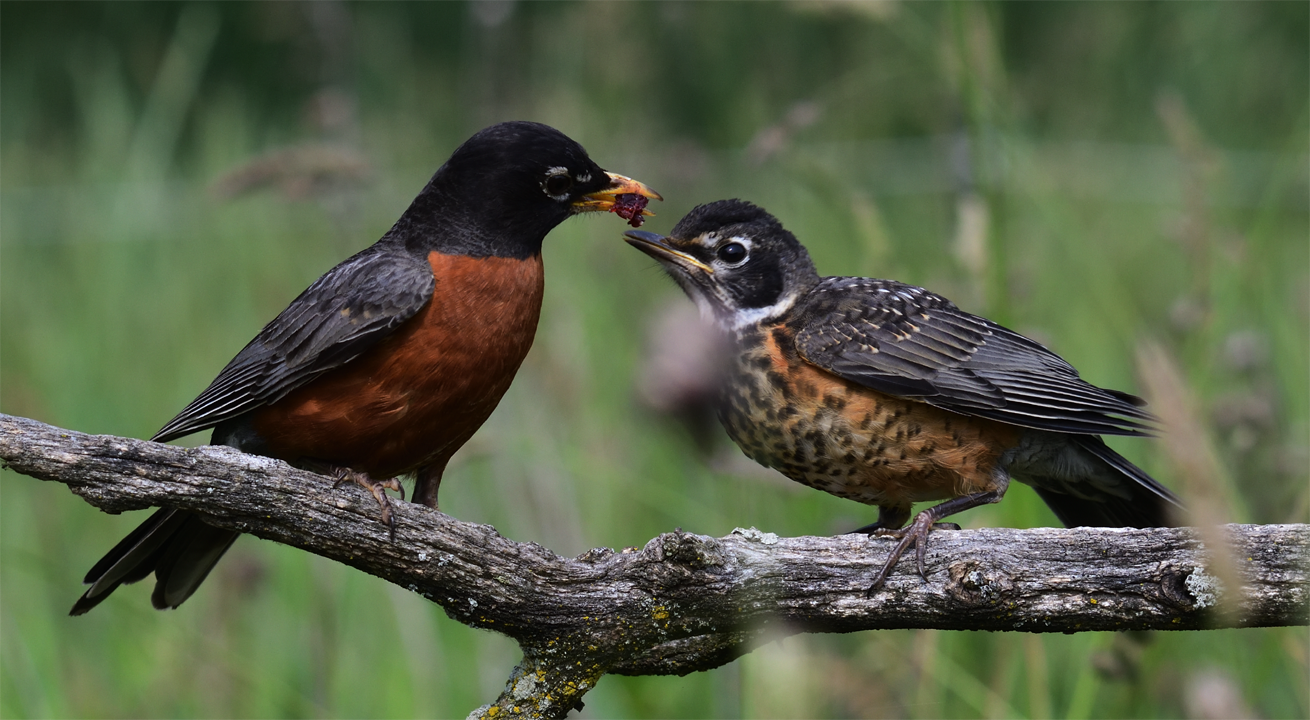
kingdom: Animalia
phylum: Chordata
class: Aves
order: Passeriformes
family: Turdidae
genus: Turdus
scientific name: Turdus migratorius
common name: American robin
